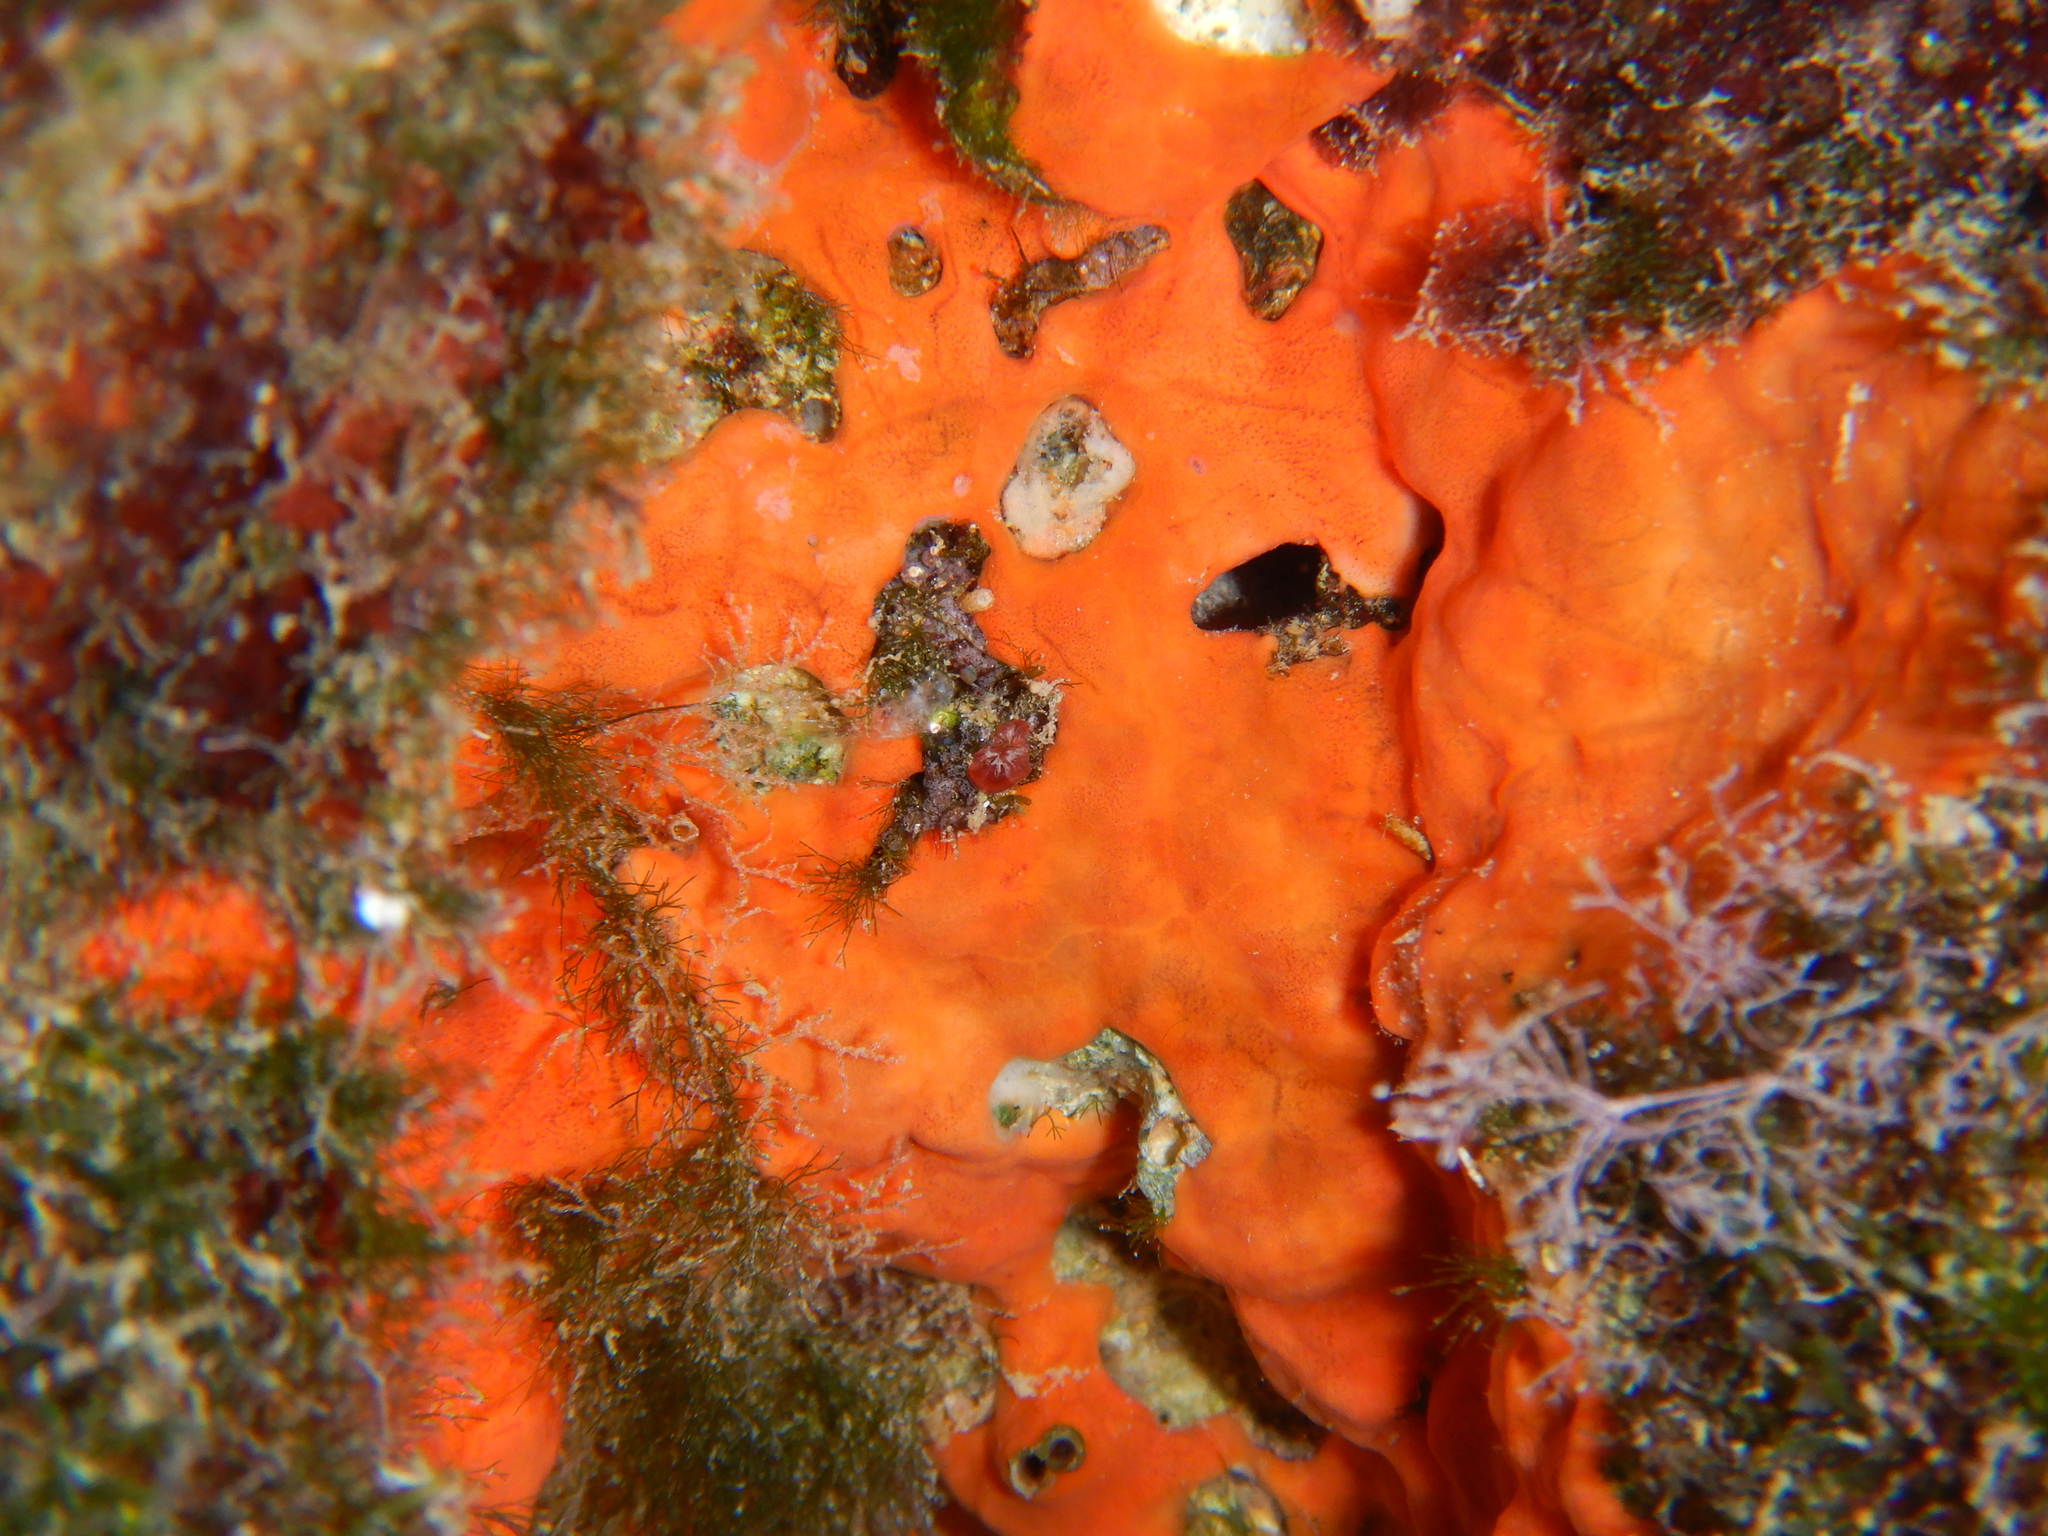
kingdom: Animalia
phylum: Porifera
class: Demospongiae
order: Poecilosclerida
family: Crambeidae
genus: Crambe
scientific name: Crambe crambe
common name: Orange-red encrusting sponge
